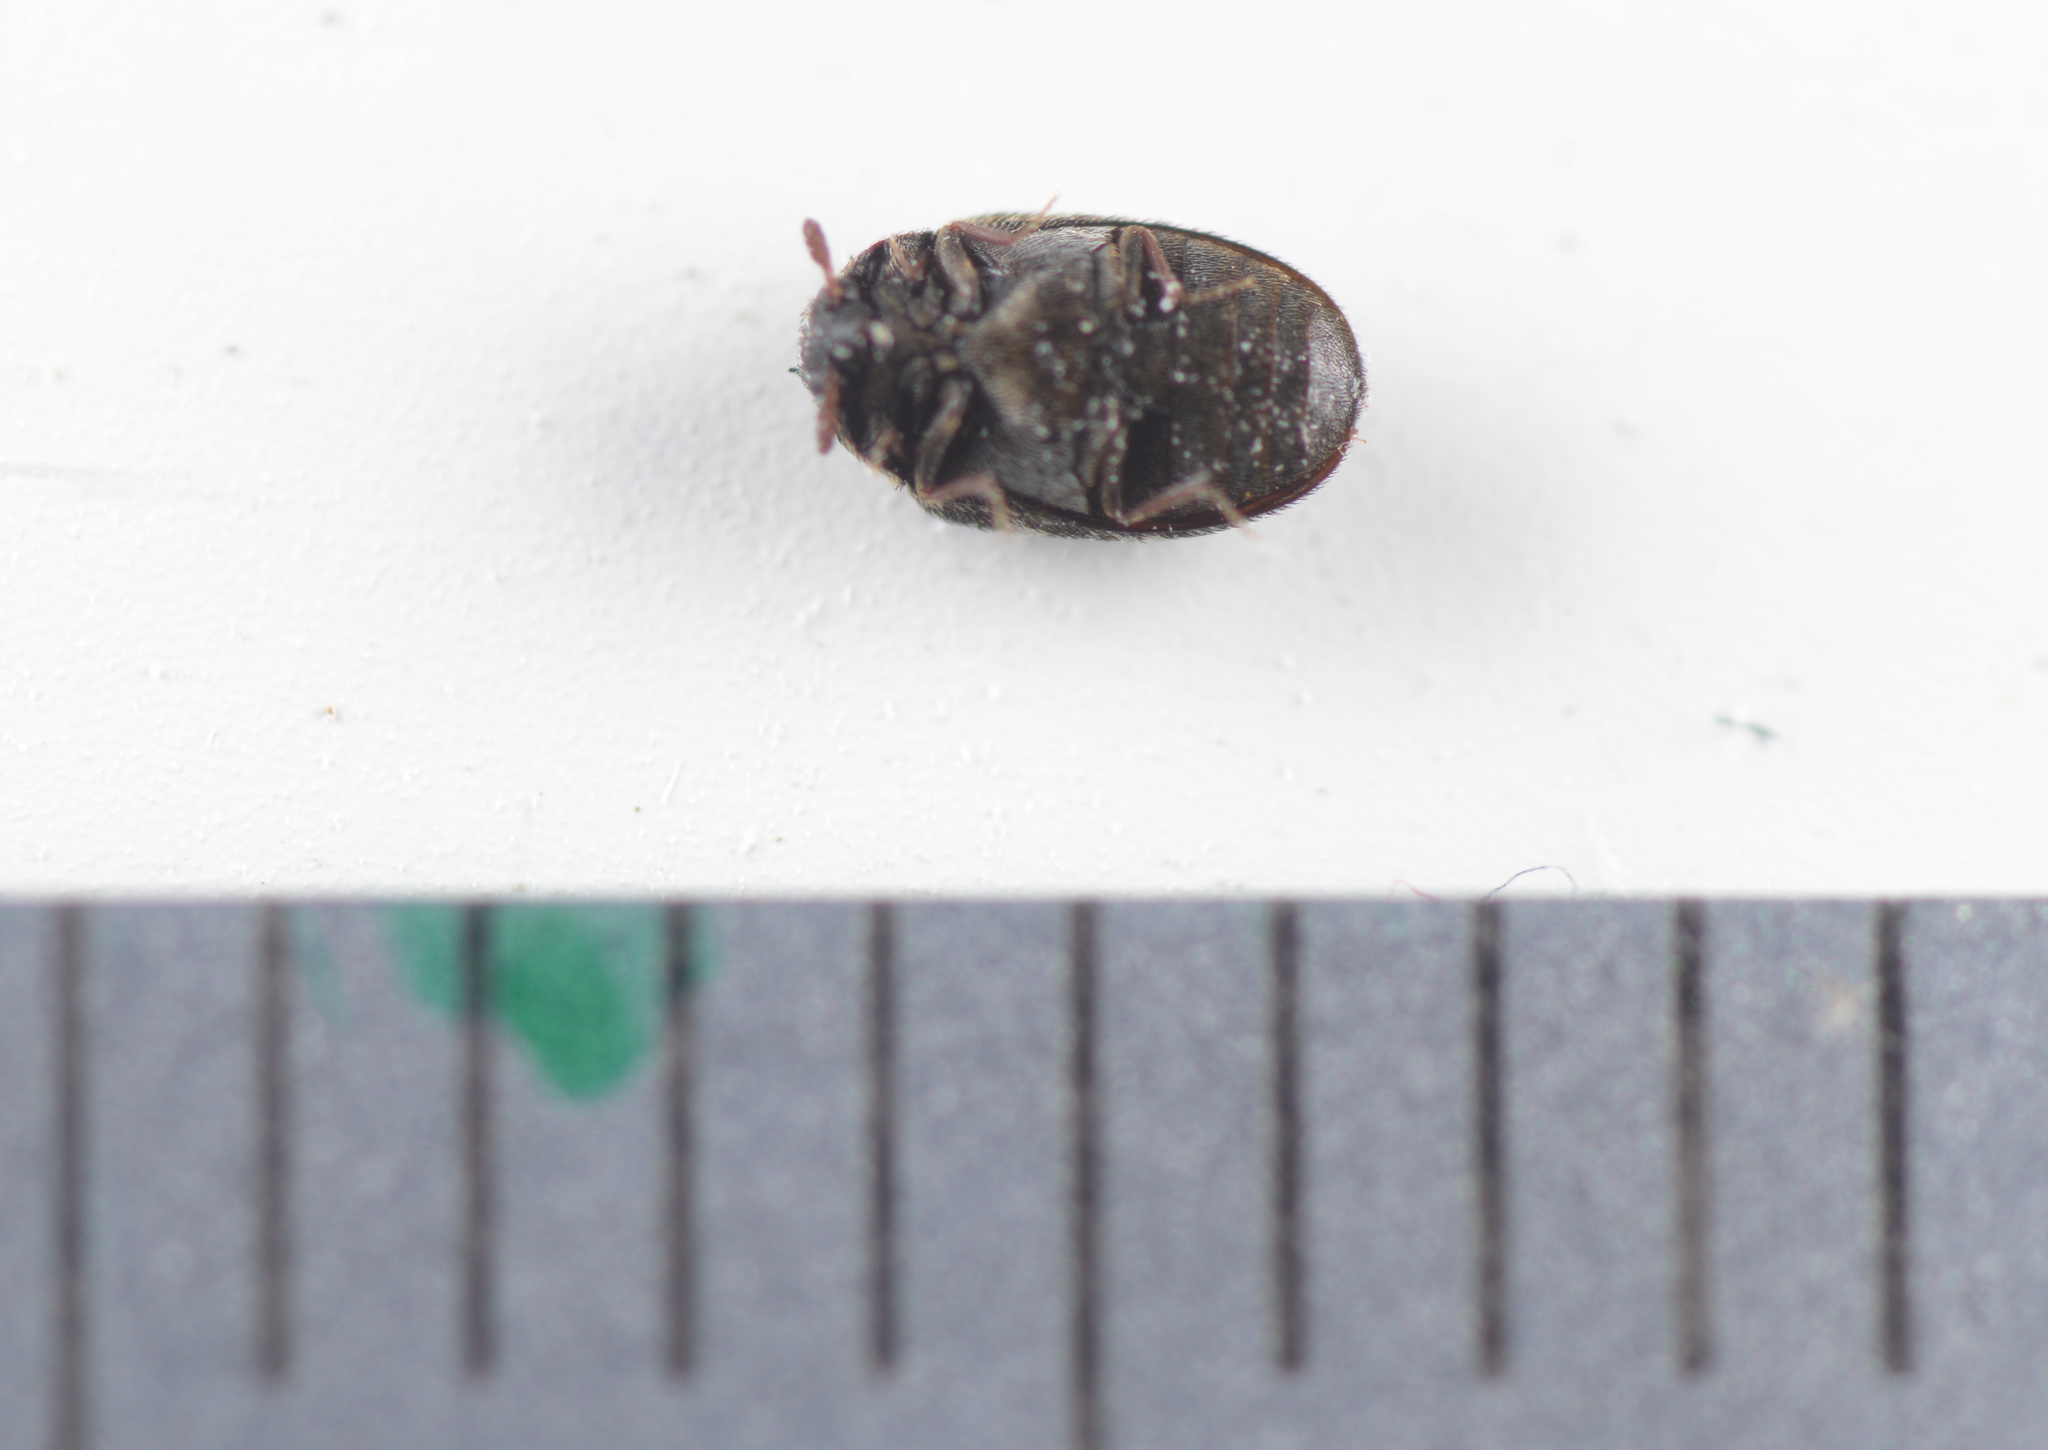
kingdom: Animalia
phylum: Arthropoda
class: Insecta
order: Coleoptera
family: Dermestidae
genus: Anthrenocerus
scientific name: Anthrenocerus australis
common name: Australian carpet beetle
